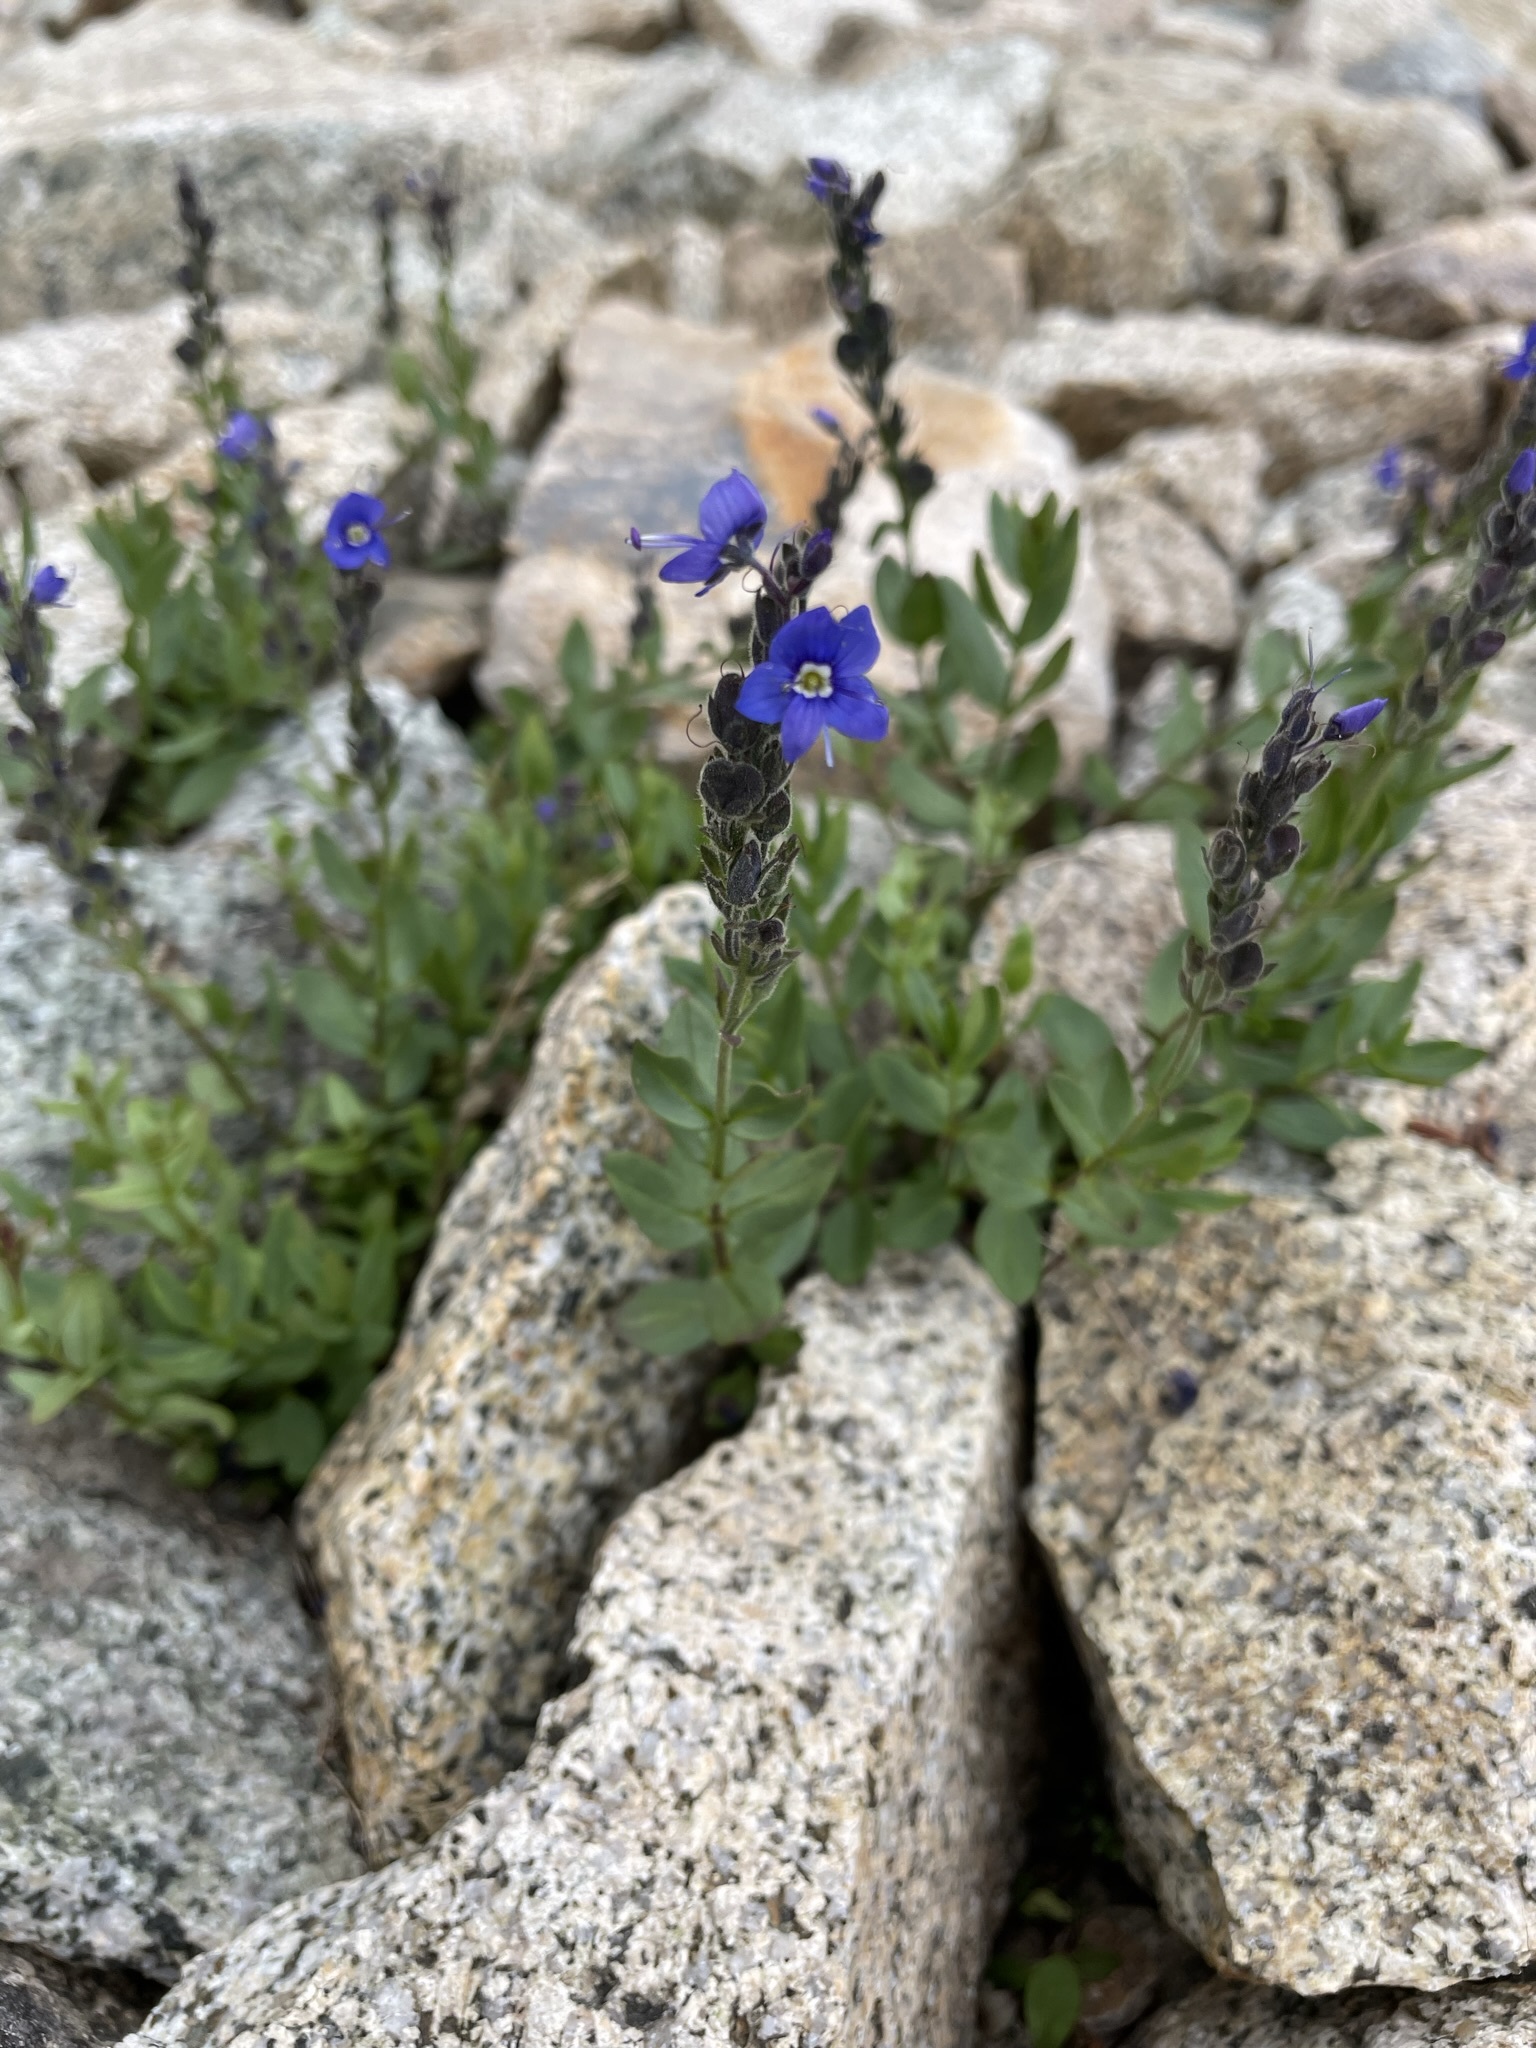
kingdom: Plantae
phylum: Tracheophyta
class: Magnoliopsida
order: Lamiales
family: Plantaginaceae
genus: Veronica
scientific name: Veronica cusickii
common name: Cusick's speedwell
